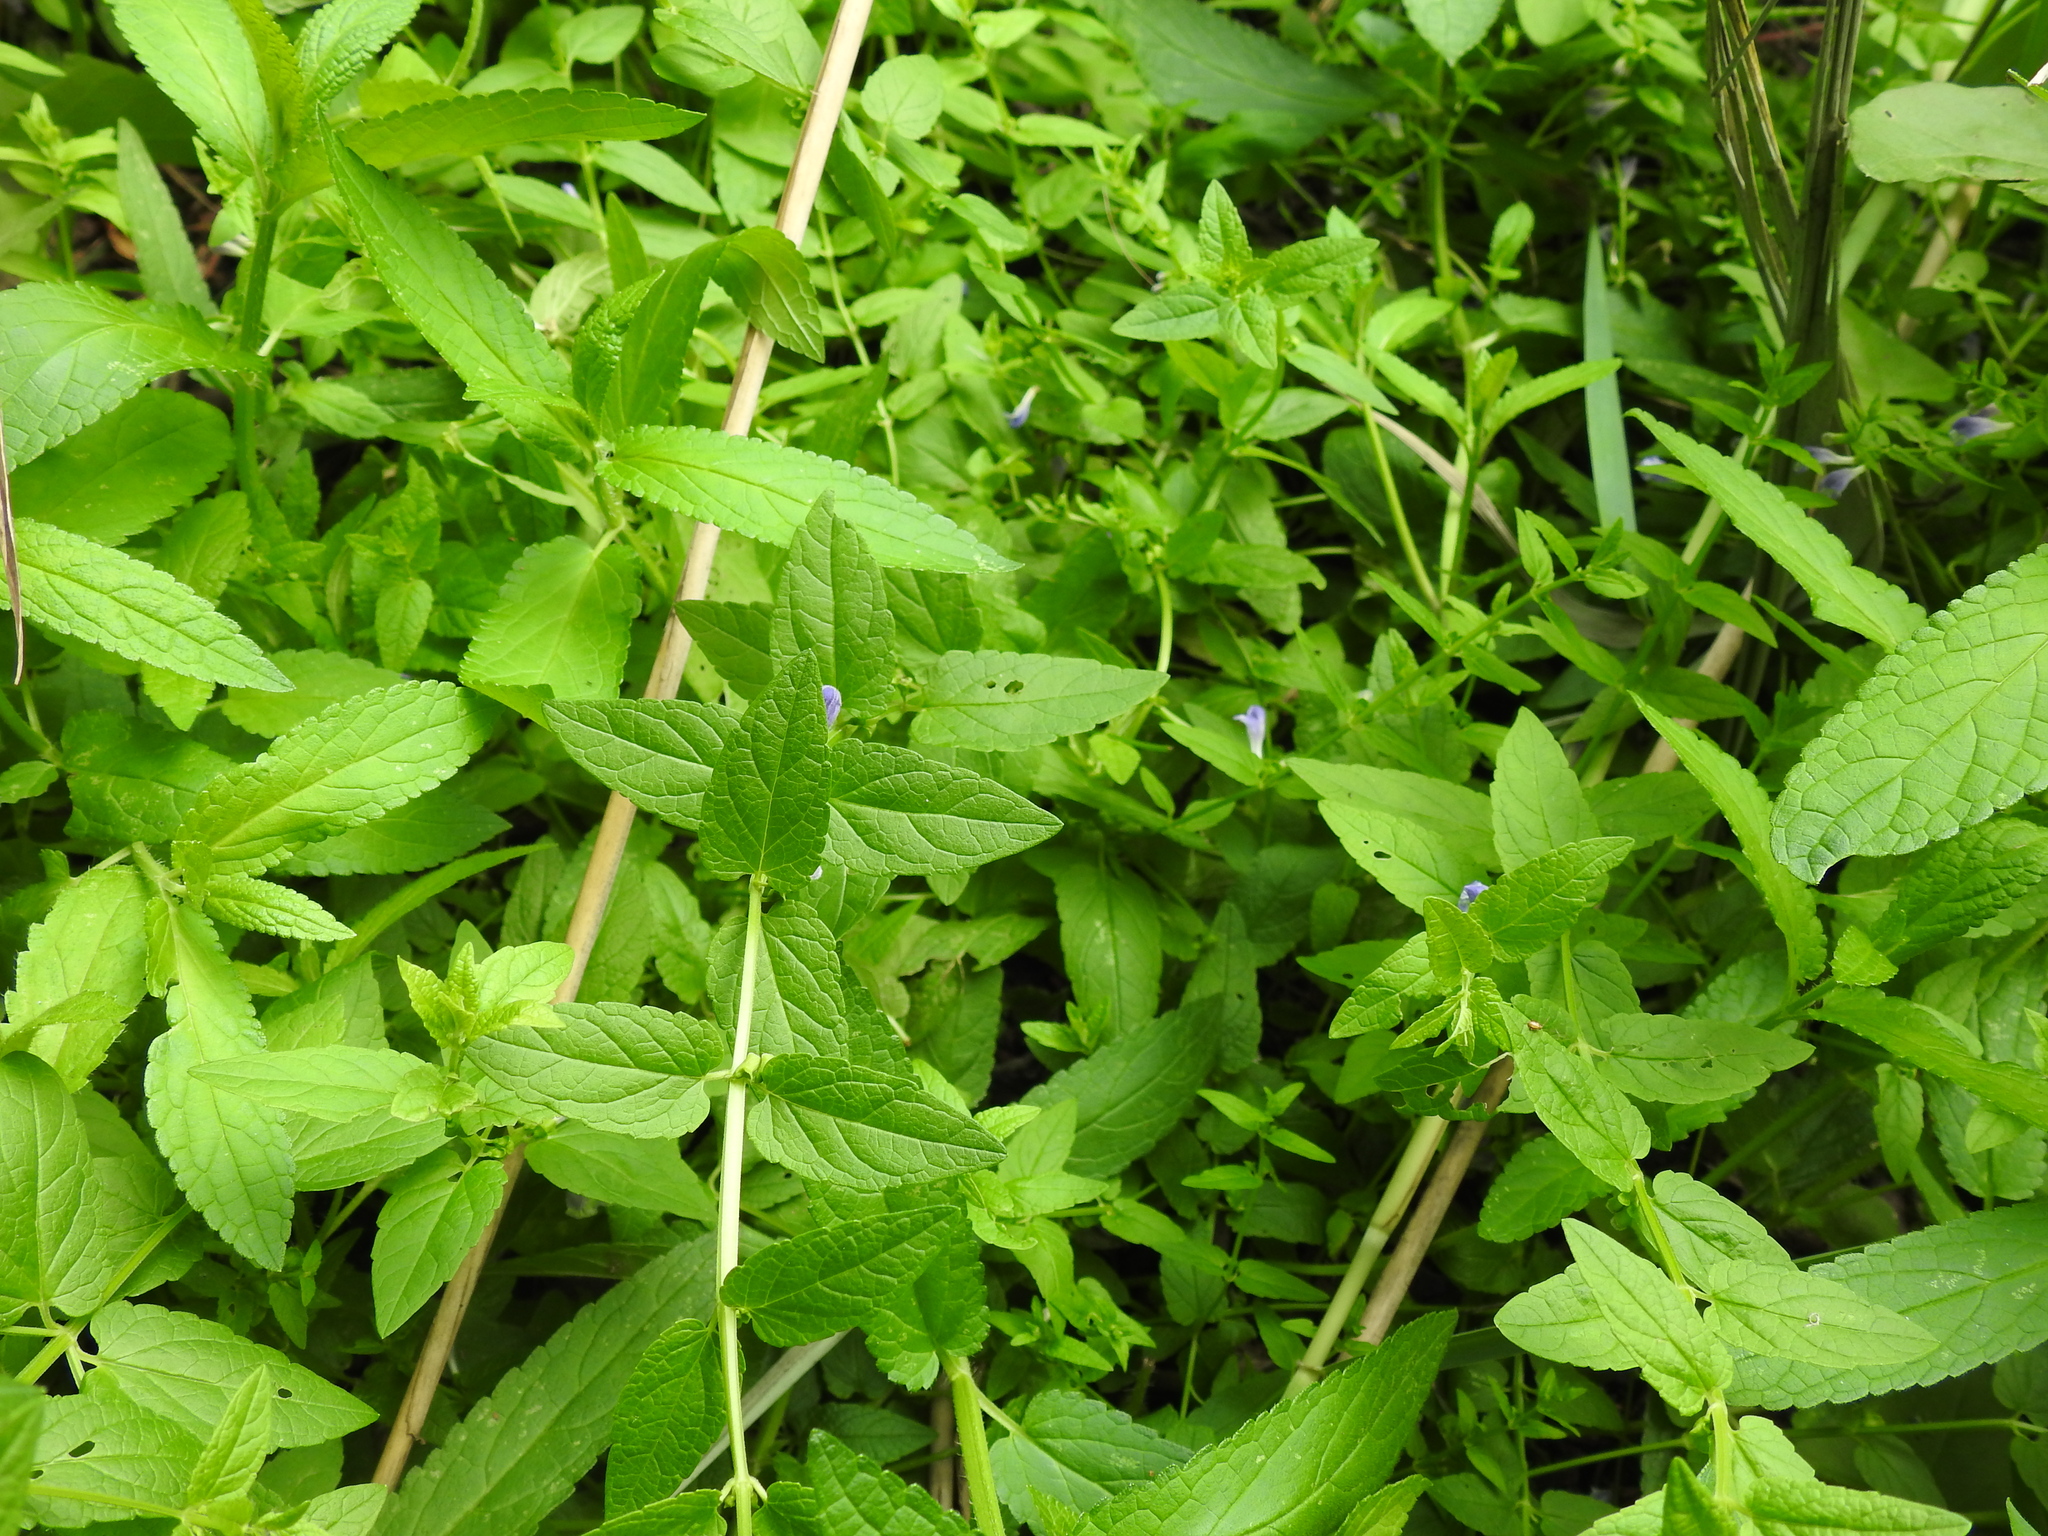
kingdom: Plantae
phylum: Tracheophyta
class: Magnoliopsida
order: Lamiales
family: Lamiaceae
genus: Scutellaria
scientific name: Scutellaria galericulata
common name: Skullcap
